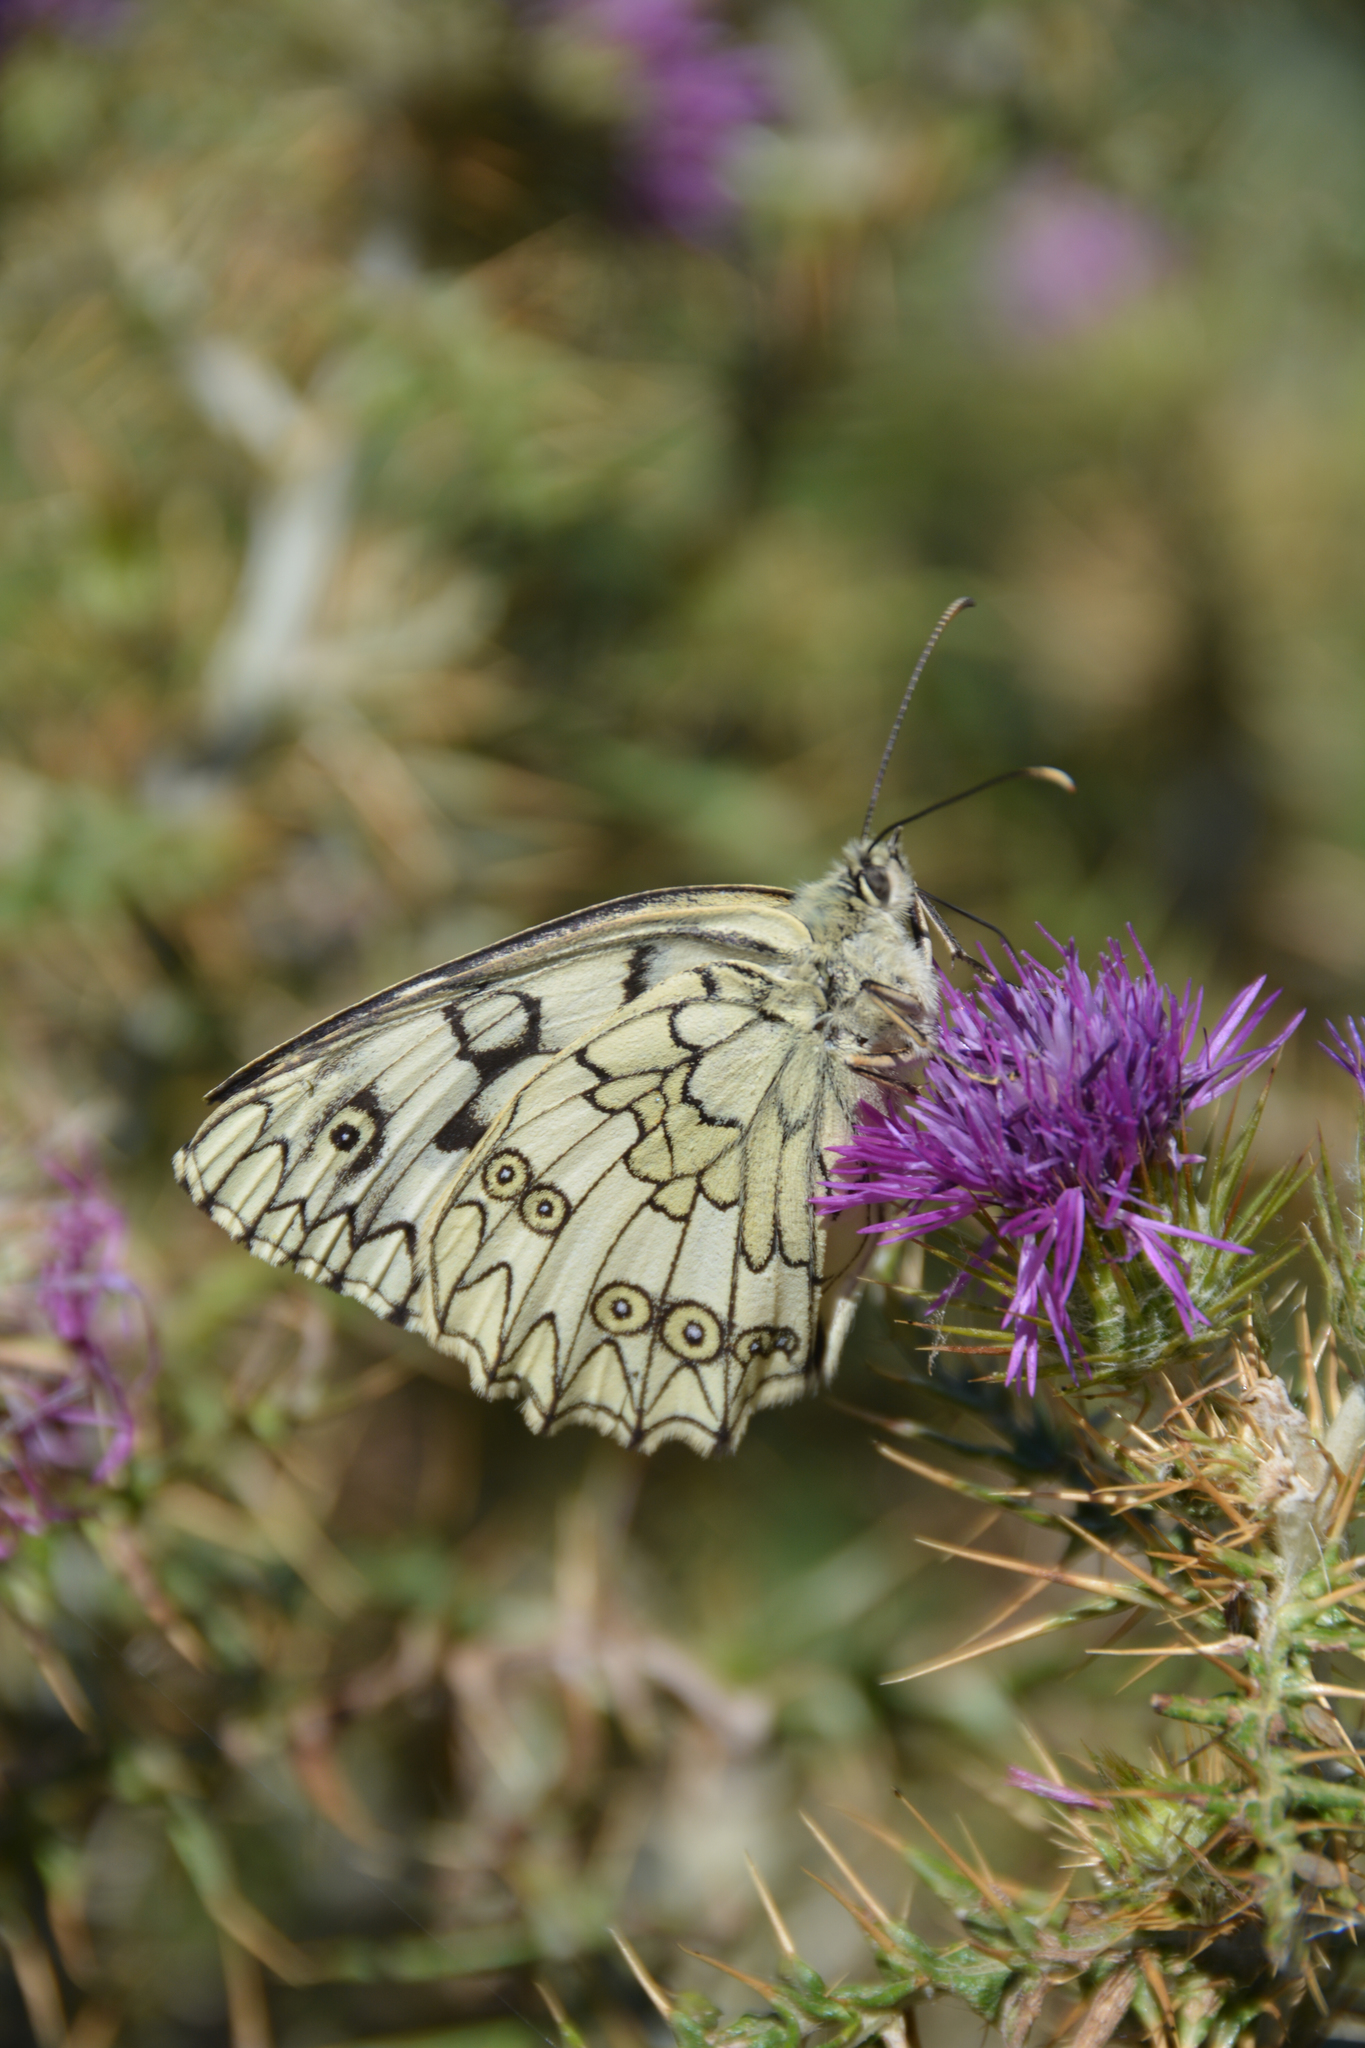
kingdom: Animalia
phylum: Arthropoda
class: Insecta
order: Lepidoptera
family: Nymphalidae
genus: Melanargia
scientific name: Melanargia japygia
